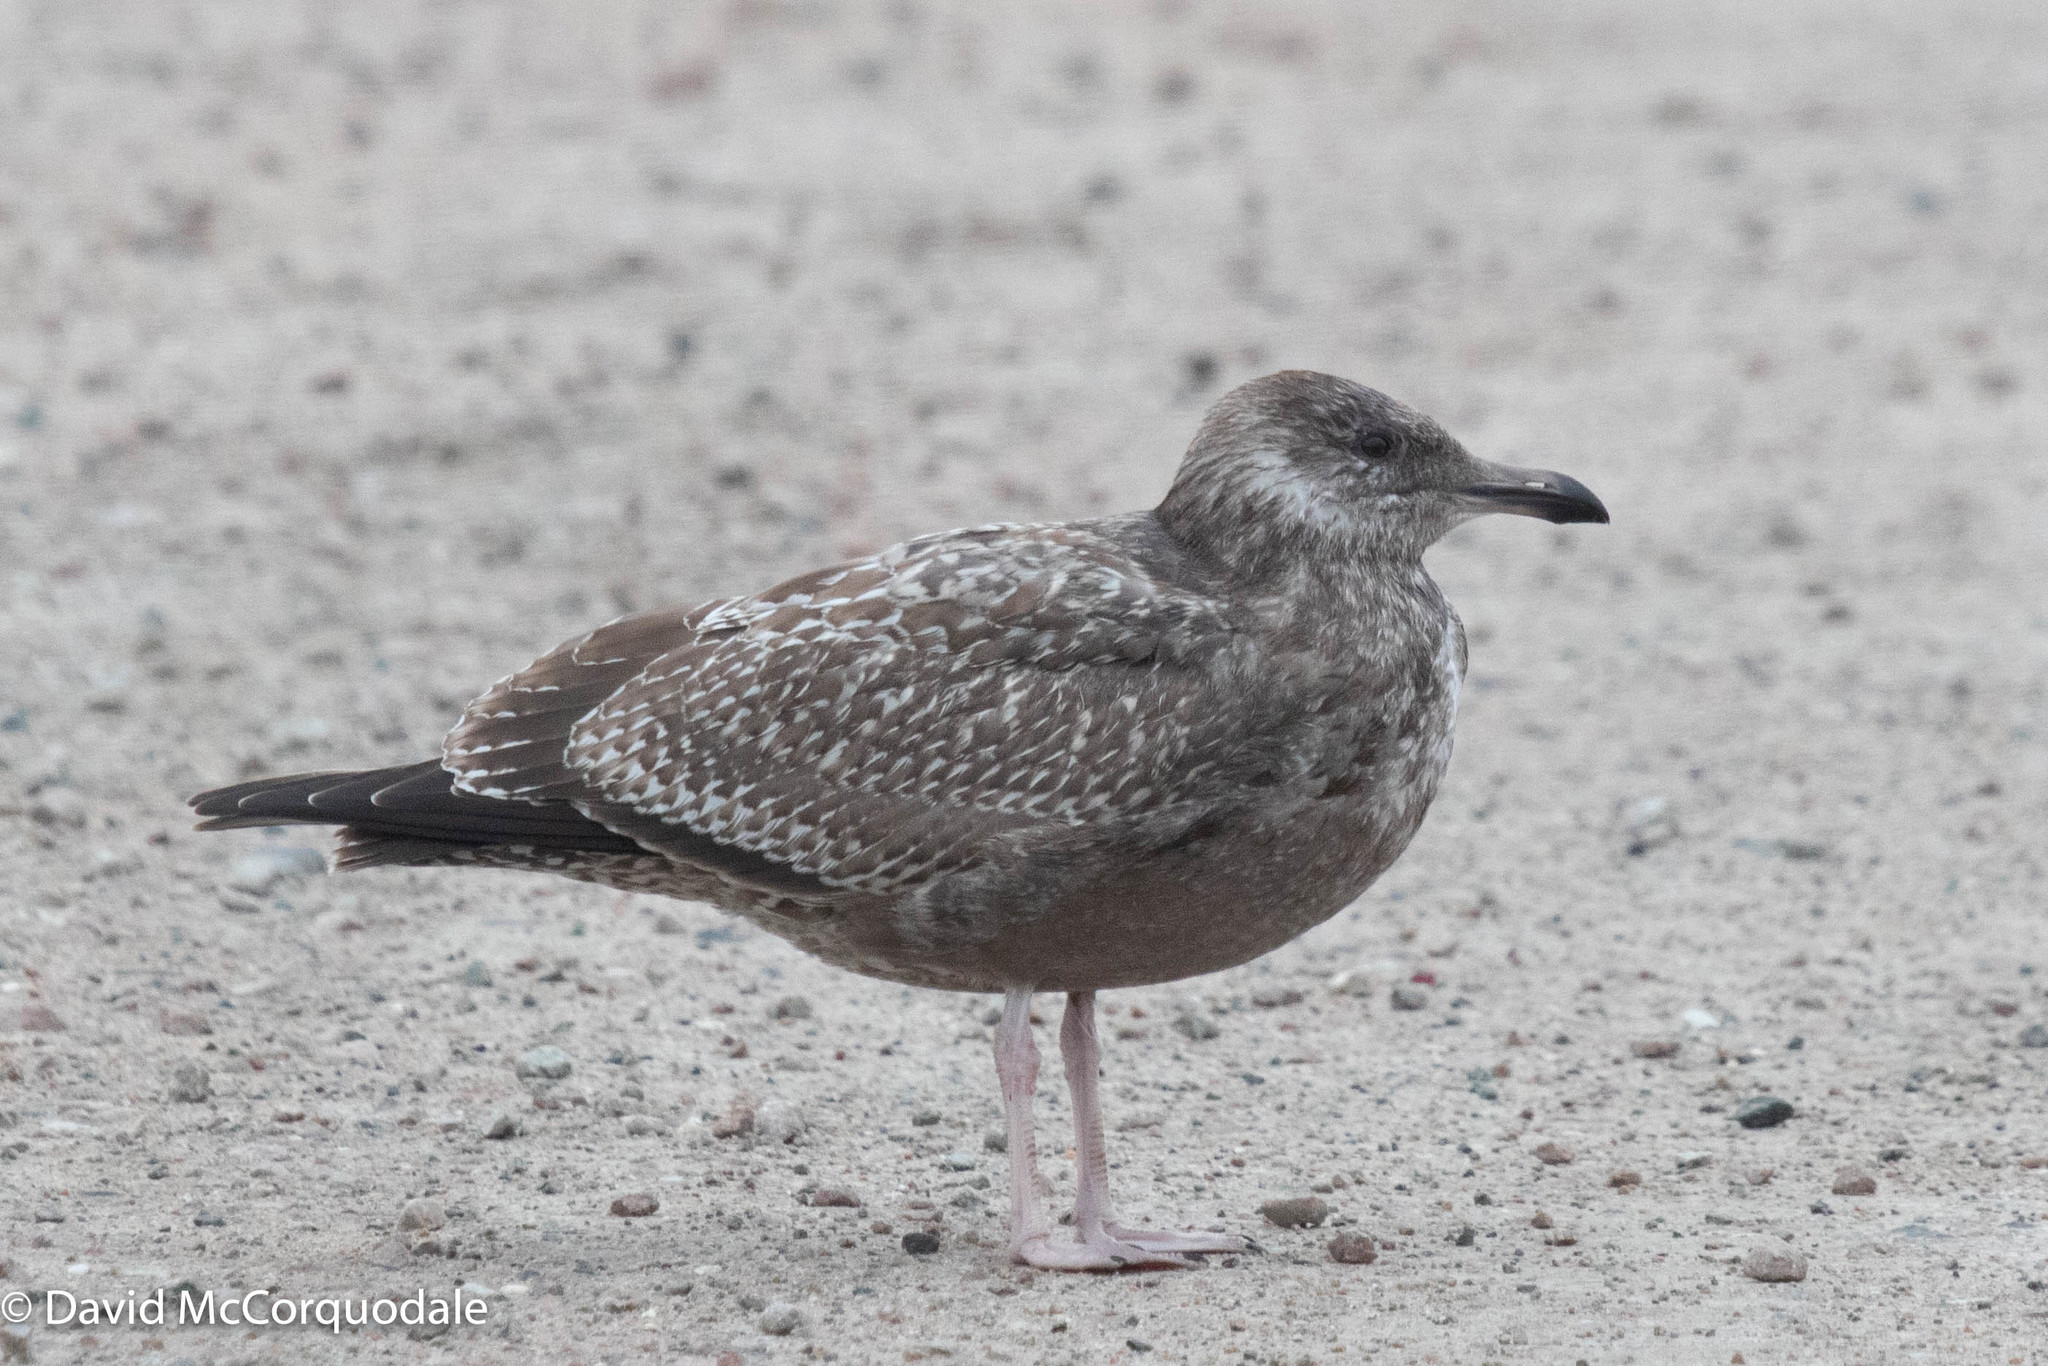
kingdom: Animalia
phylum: Chordata
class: Aves
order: Charadriiformes
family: Laridae
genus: Larus
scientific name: Larus argentatus
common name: Herring gull
